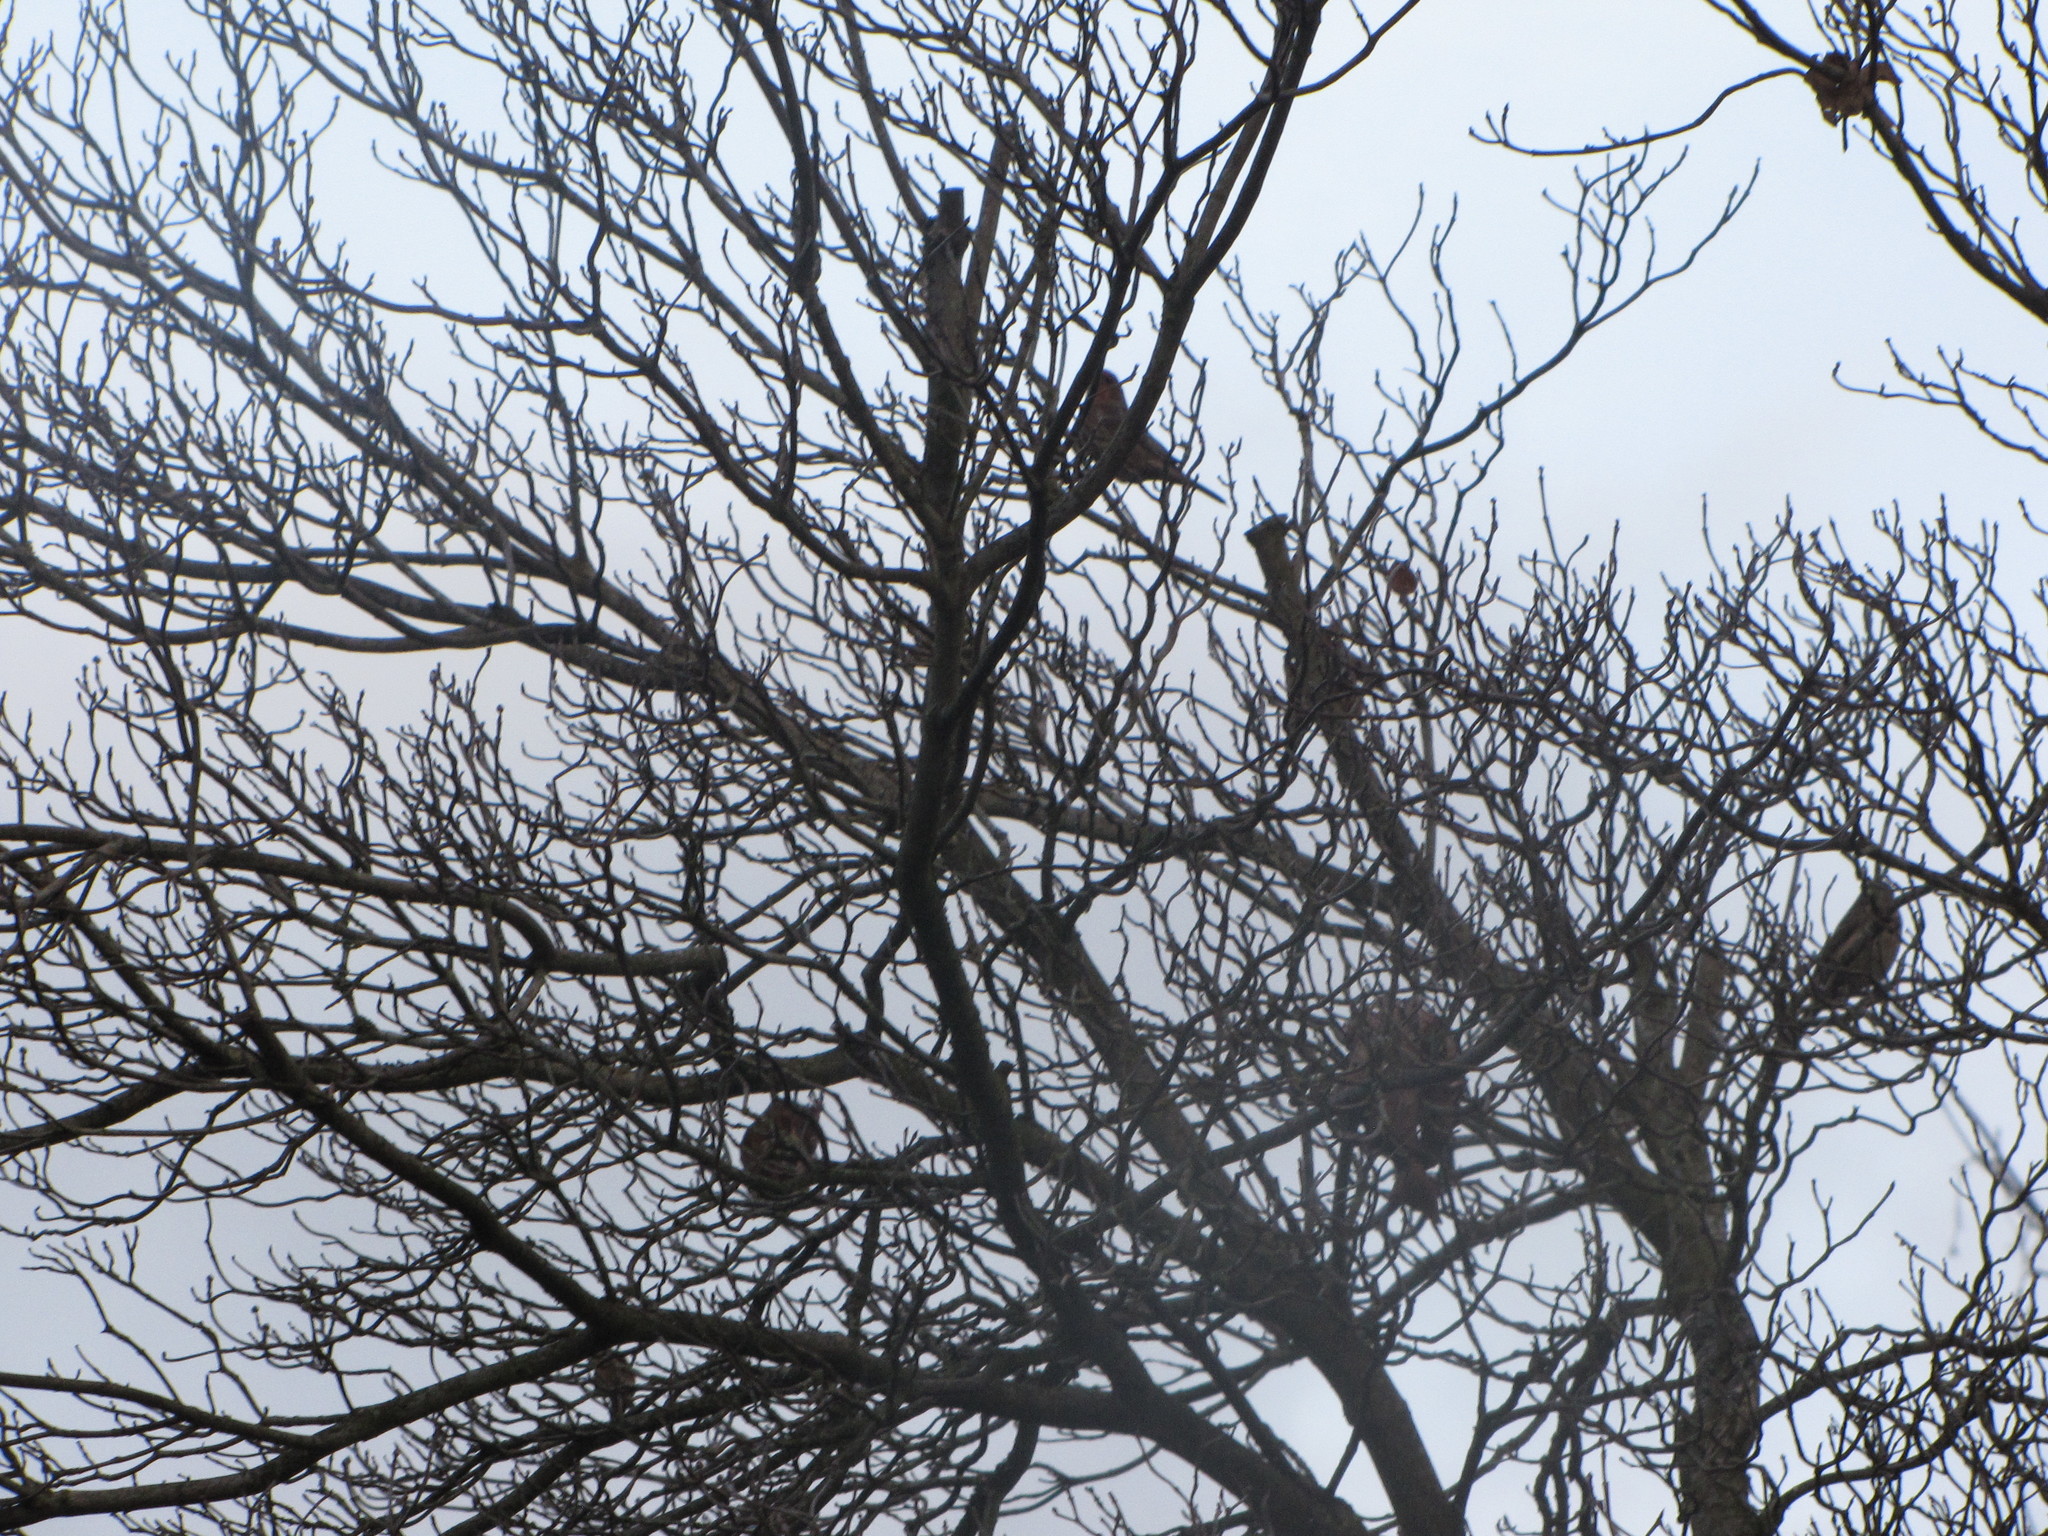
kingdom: Animalia
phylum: Chordata
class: Aves
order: Passeriformes
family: Fringillidae
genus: Haemorhous
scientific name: Haemorhous mexicanus
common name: House finch
